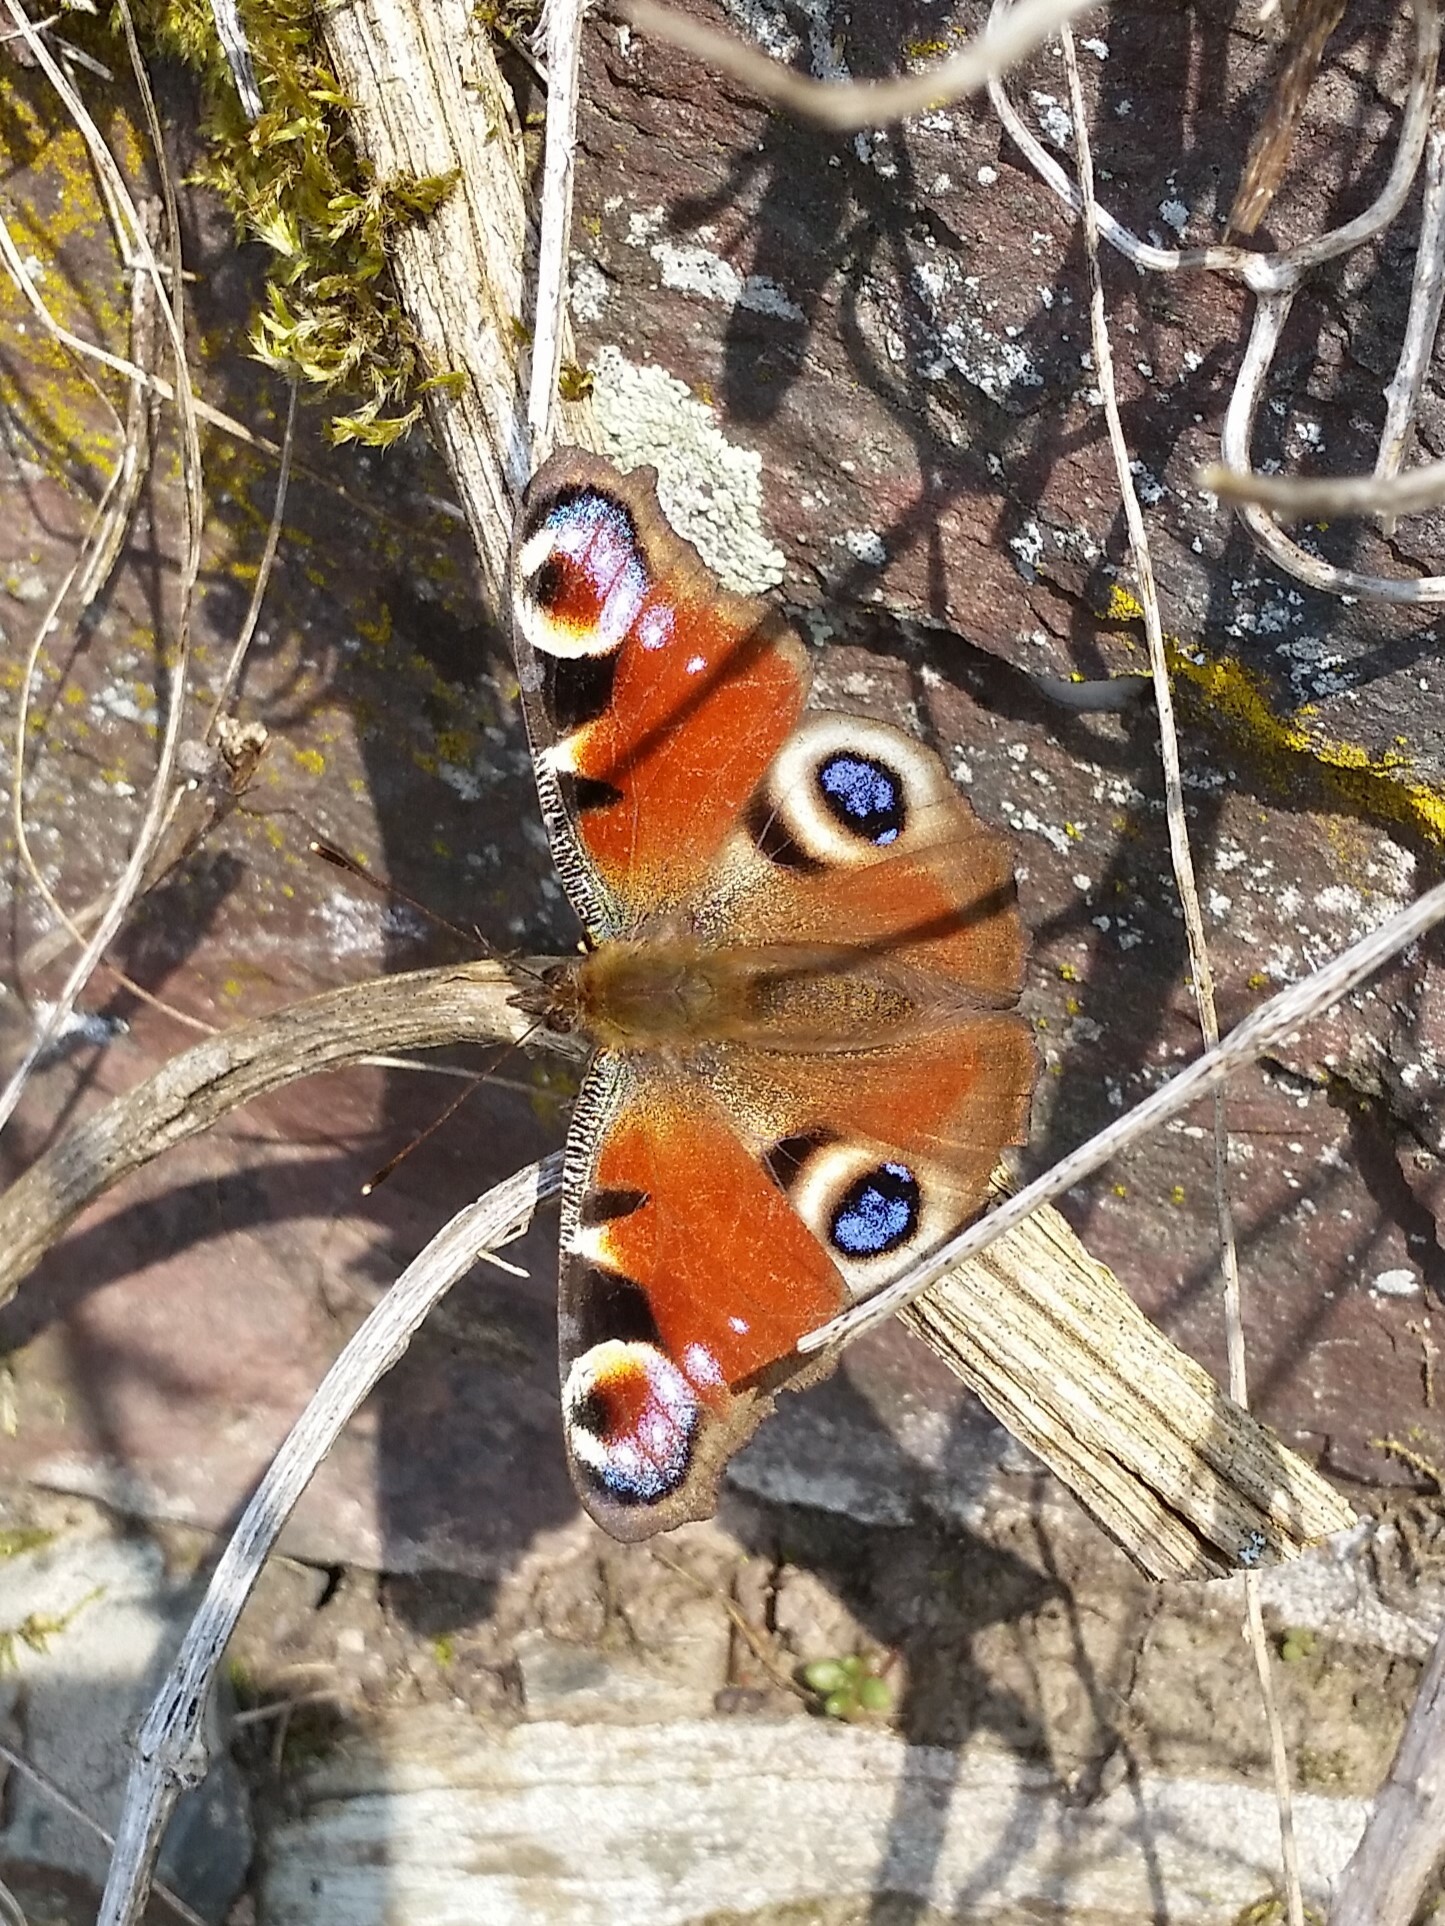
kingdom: Animalia
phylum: Arthropoda
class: Insecta
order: Lepidoptera
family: Nymphalidae
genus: Aglais
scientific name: Aglais io
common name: Peacock
